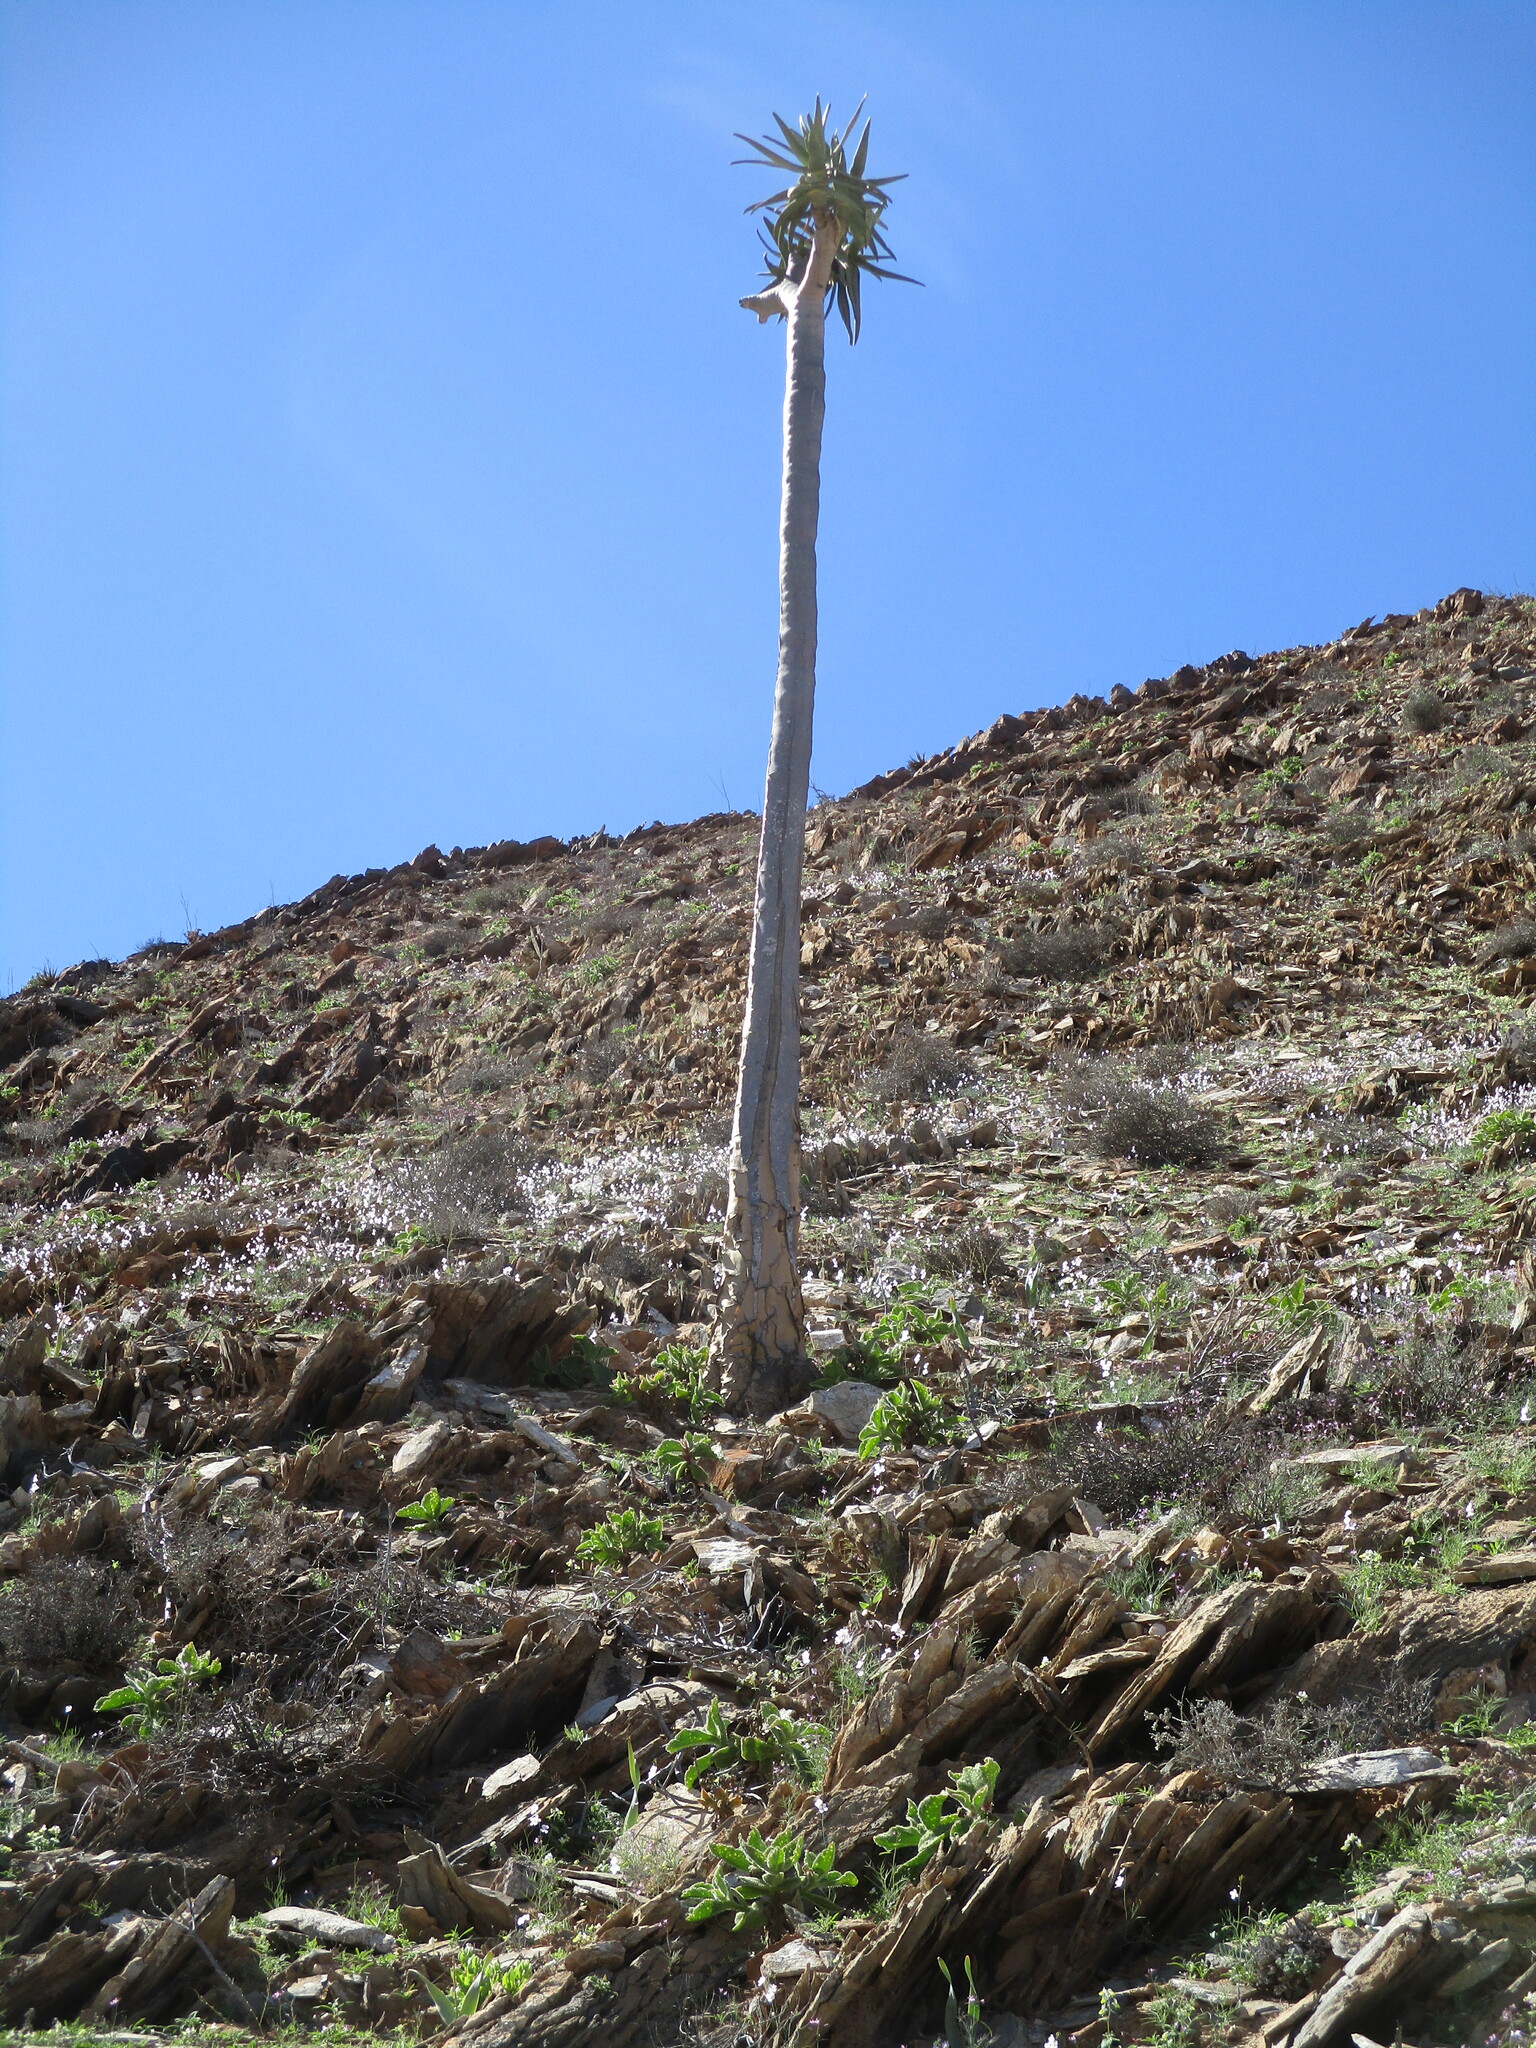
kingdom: Plantae
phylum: Tracheophyta
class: Liliopsida
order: Asparagales
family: Asphodelaceae
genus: Aloidendron
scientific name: Aloidendron dichotomum
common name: Quiver tree
